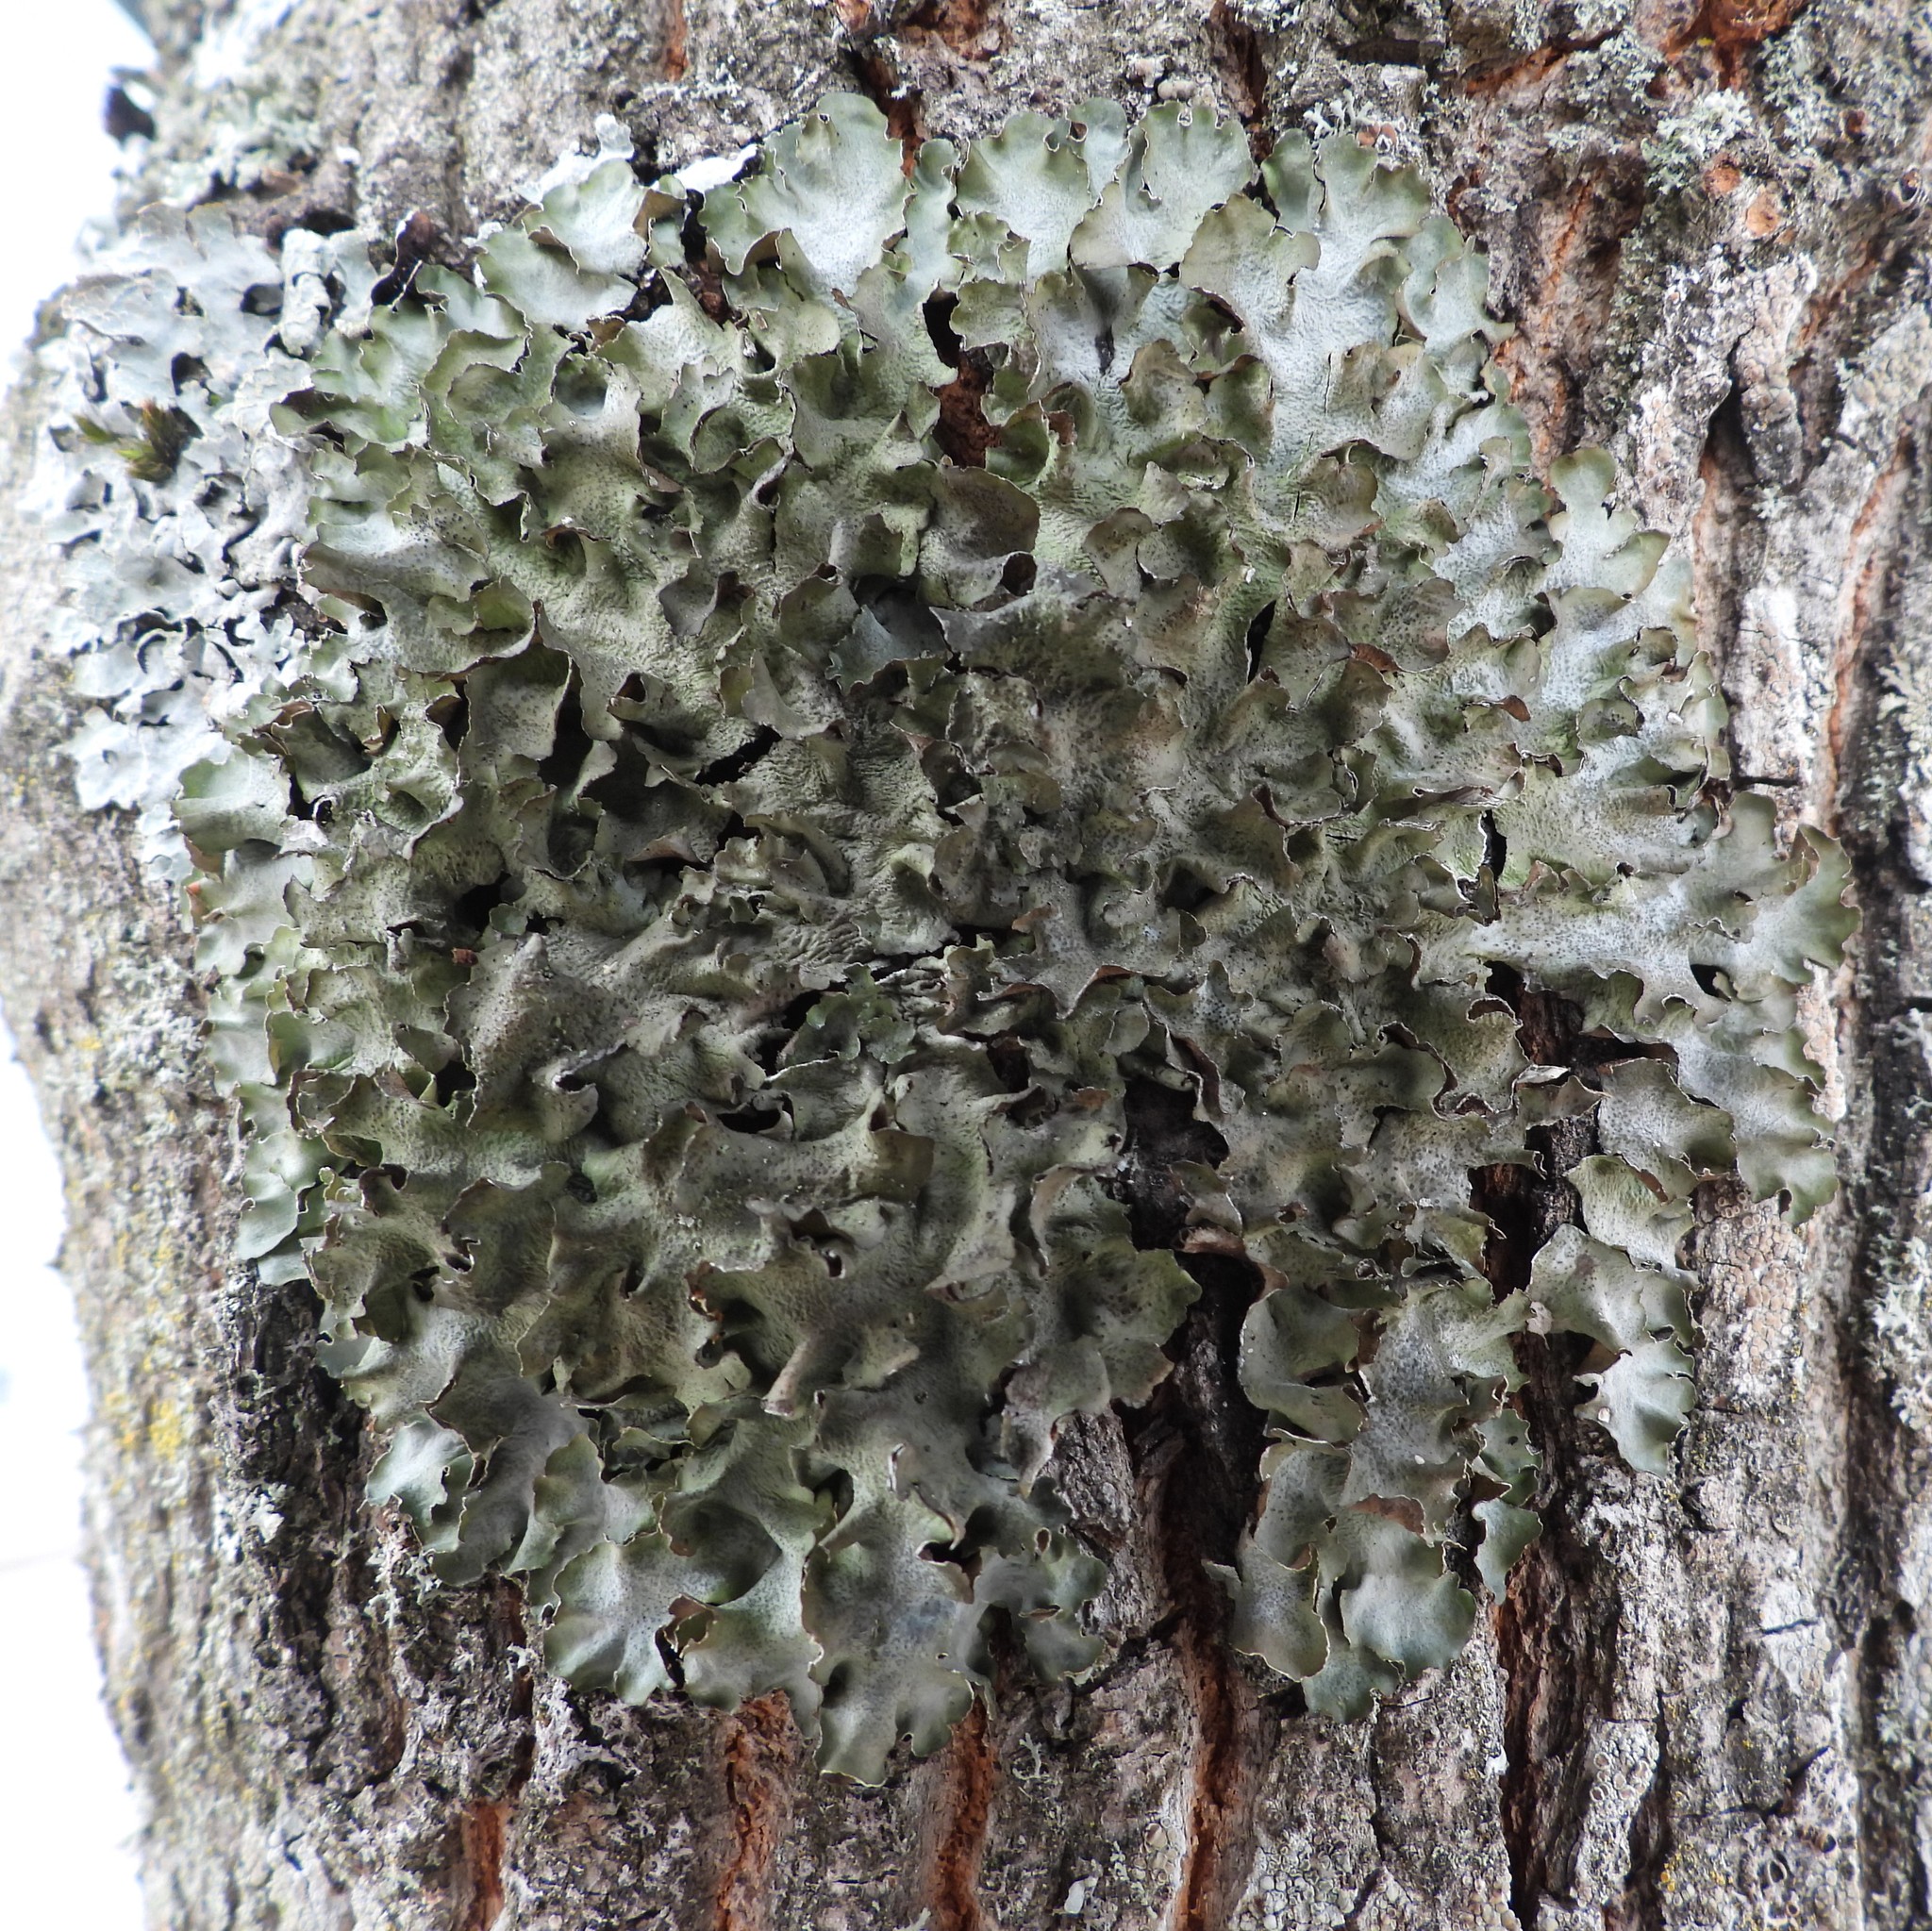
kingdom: Fungi
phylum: Ascomycota
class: Lecanoromycetes
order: Lecanorales
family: Parmeliaceae
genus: Pleurosticta
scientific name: Pleurosticta acetabulum
